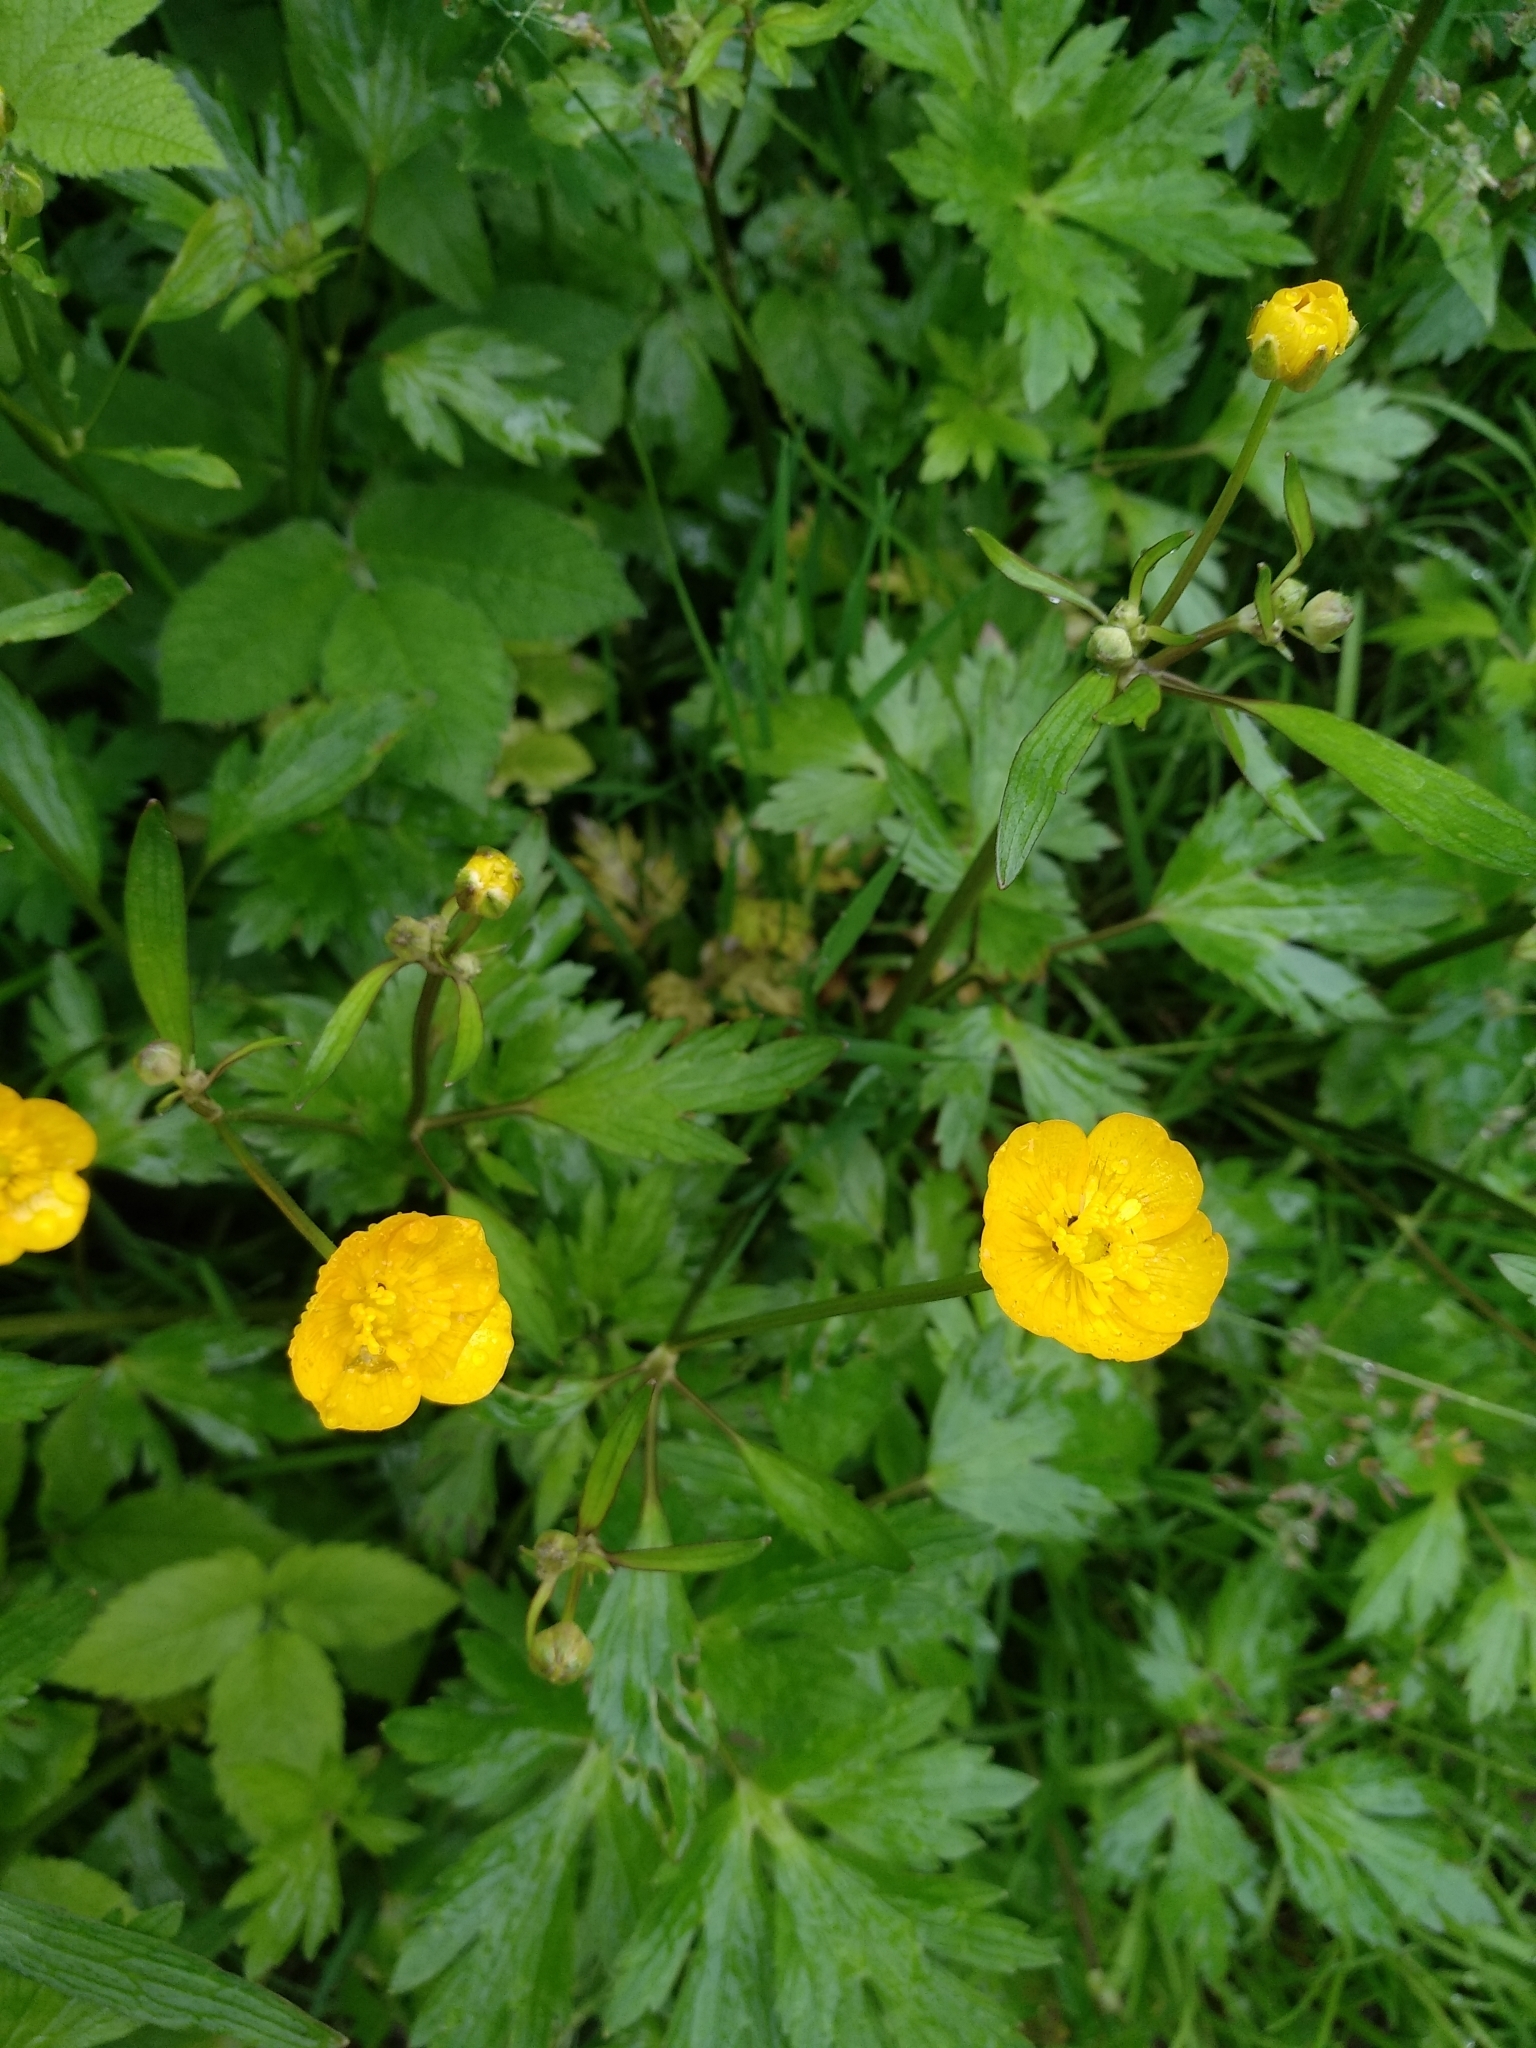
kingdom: Plantae
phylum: Tracheophyta
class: Magnoliopsida
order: Ranunculales
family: Ranunculaceae
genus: Ranunculus
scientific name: Ranunculus repens
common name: Creeping buttercup
